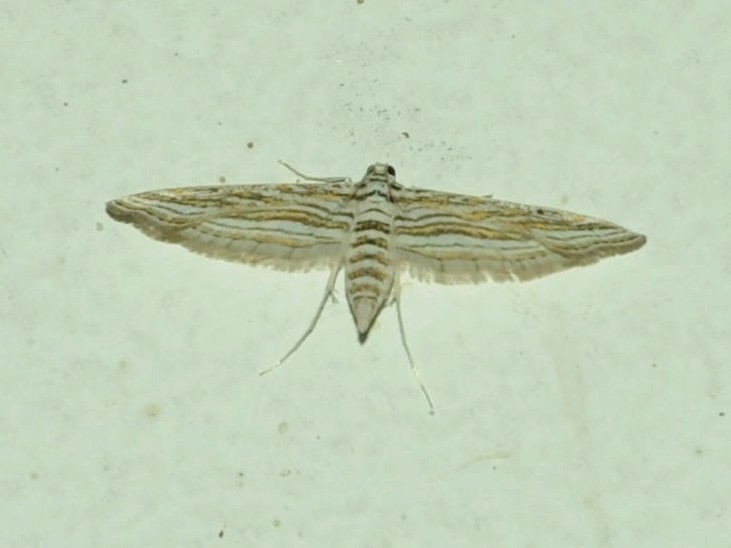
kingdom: Animalia
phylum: Arthropoda
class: Insecta
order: Lepidoptera
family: Crambidae
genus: Parapoynx
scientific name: Parapoynx fluctuosalis
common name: Moth
